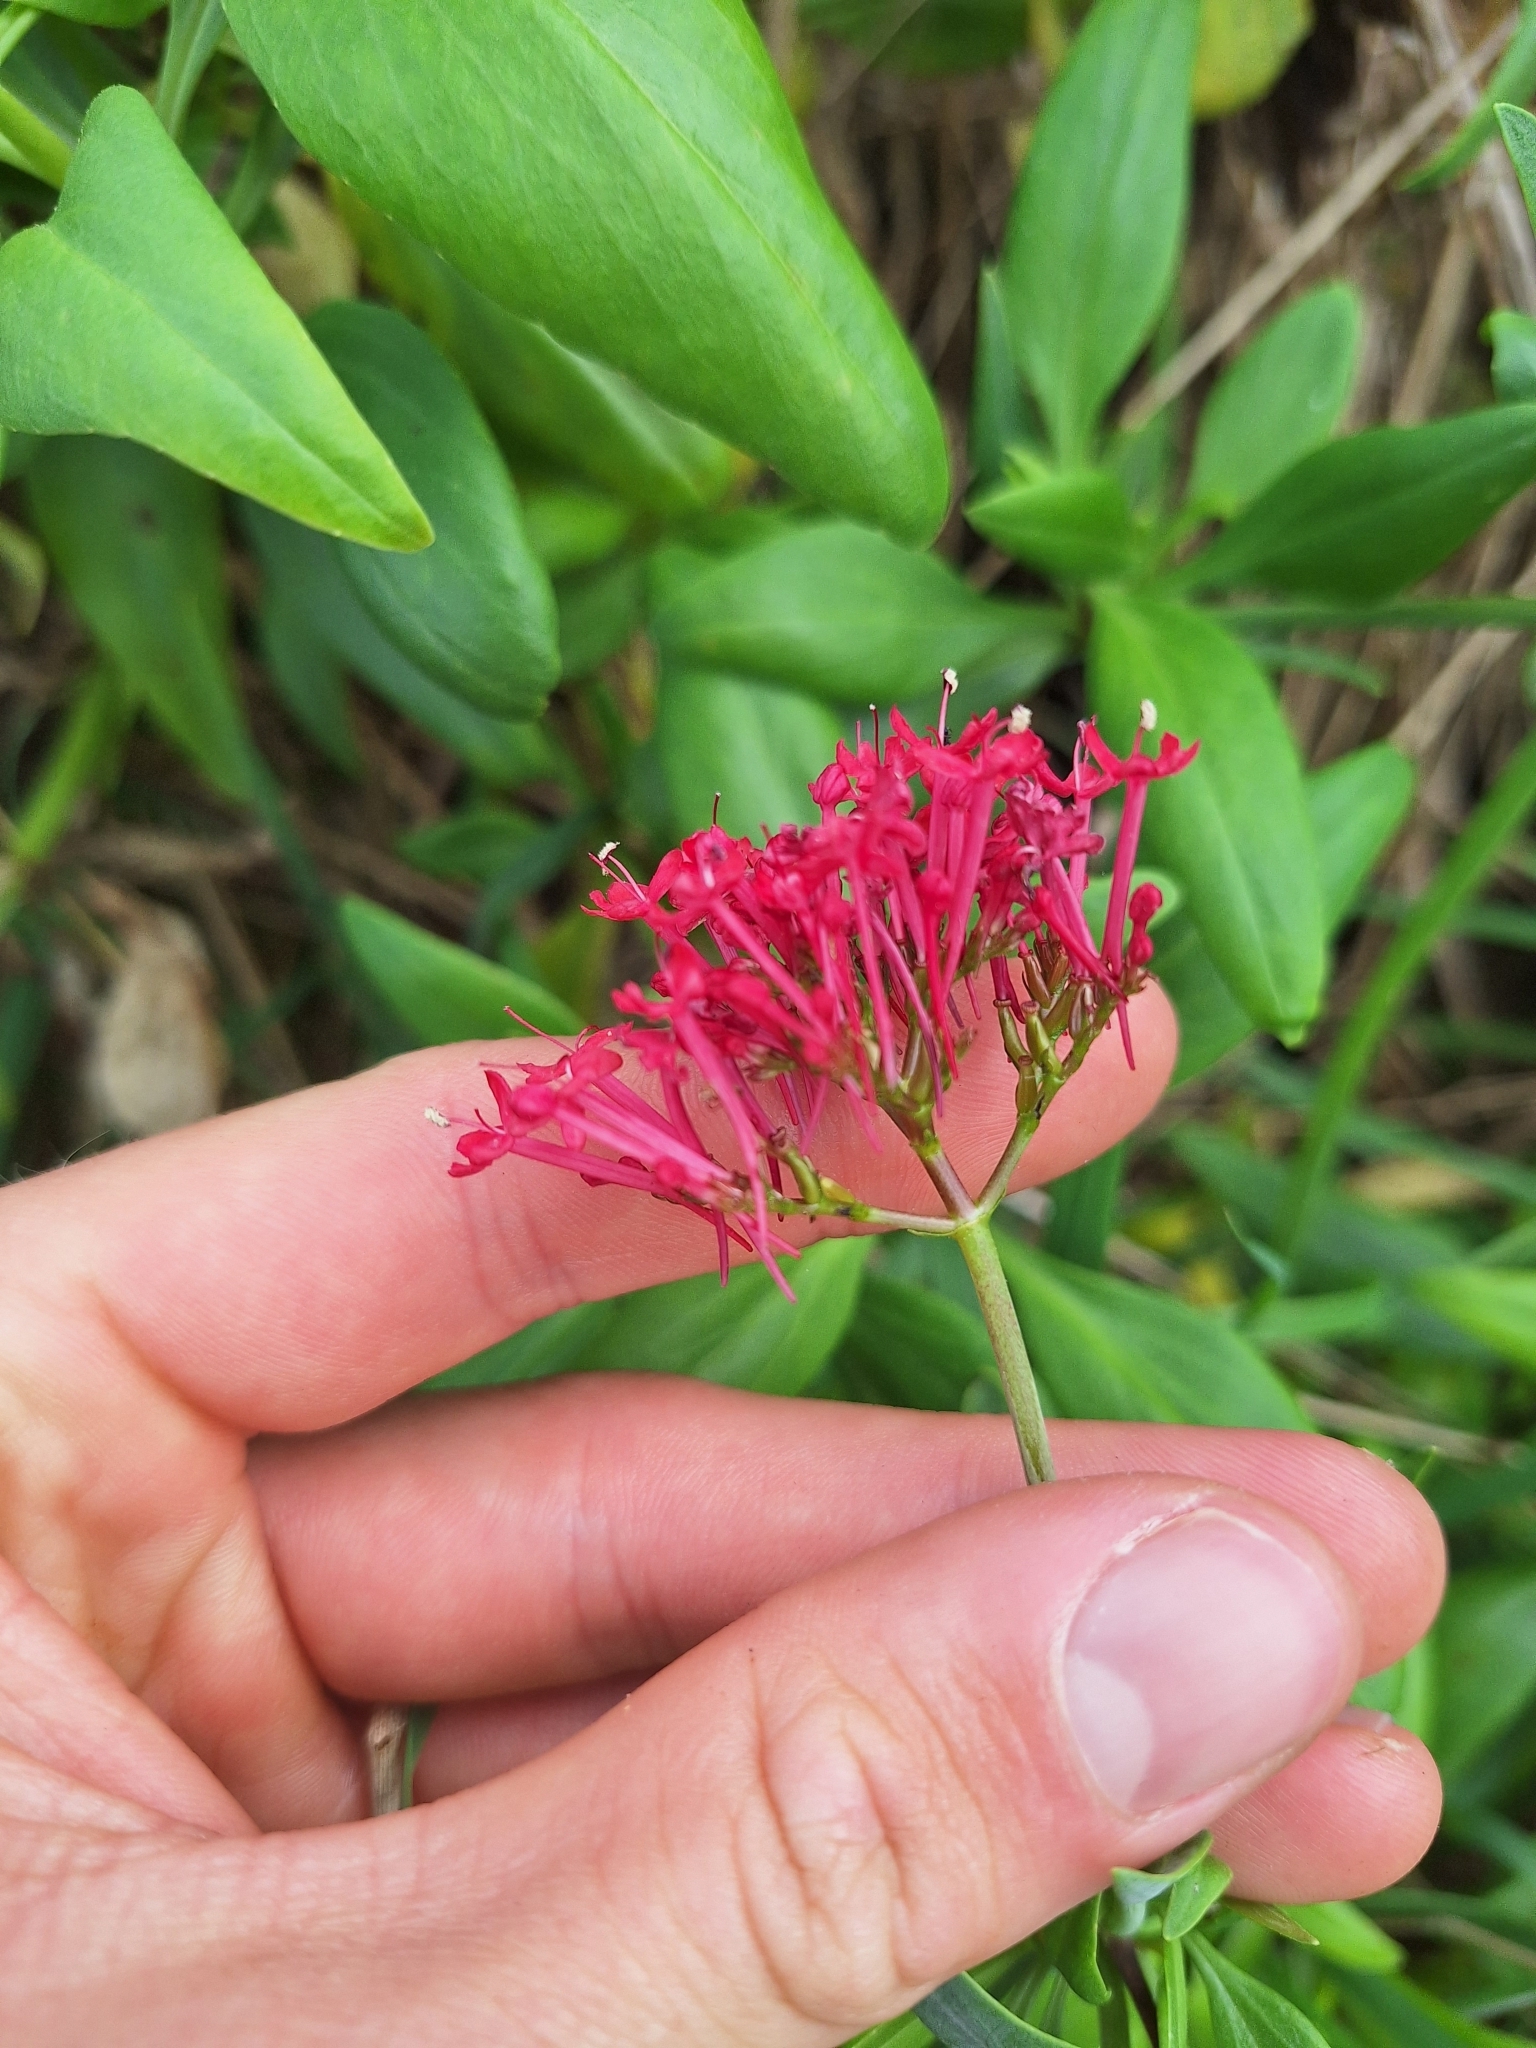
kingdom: Plantae
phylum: Tracheophyta
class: Magnoliopsida
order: Dipsacales
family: Caprifoliaceae
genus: Centranthus
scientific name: Centranthus ruber
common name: Red valerian
